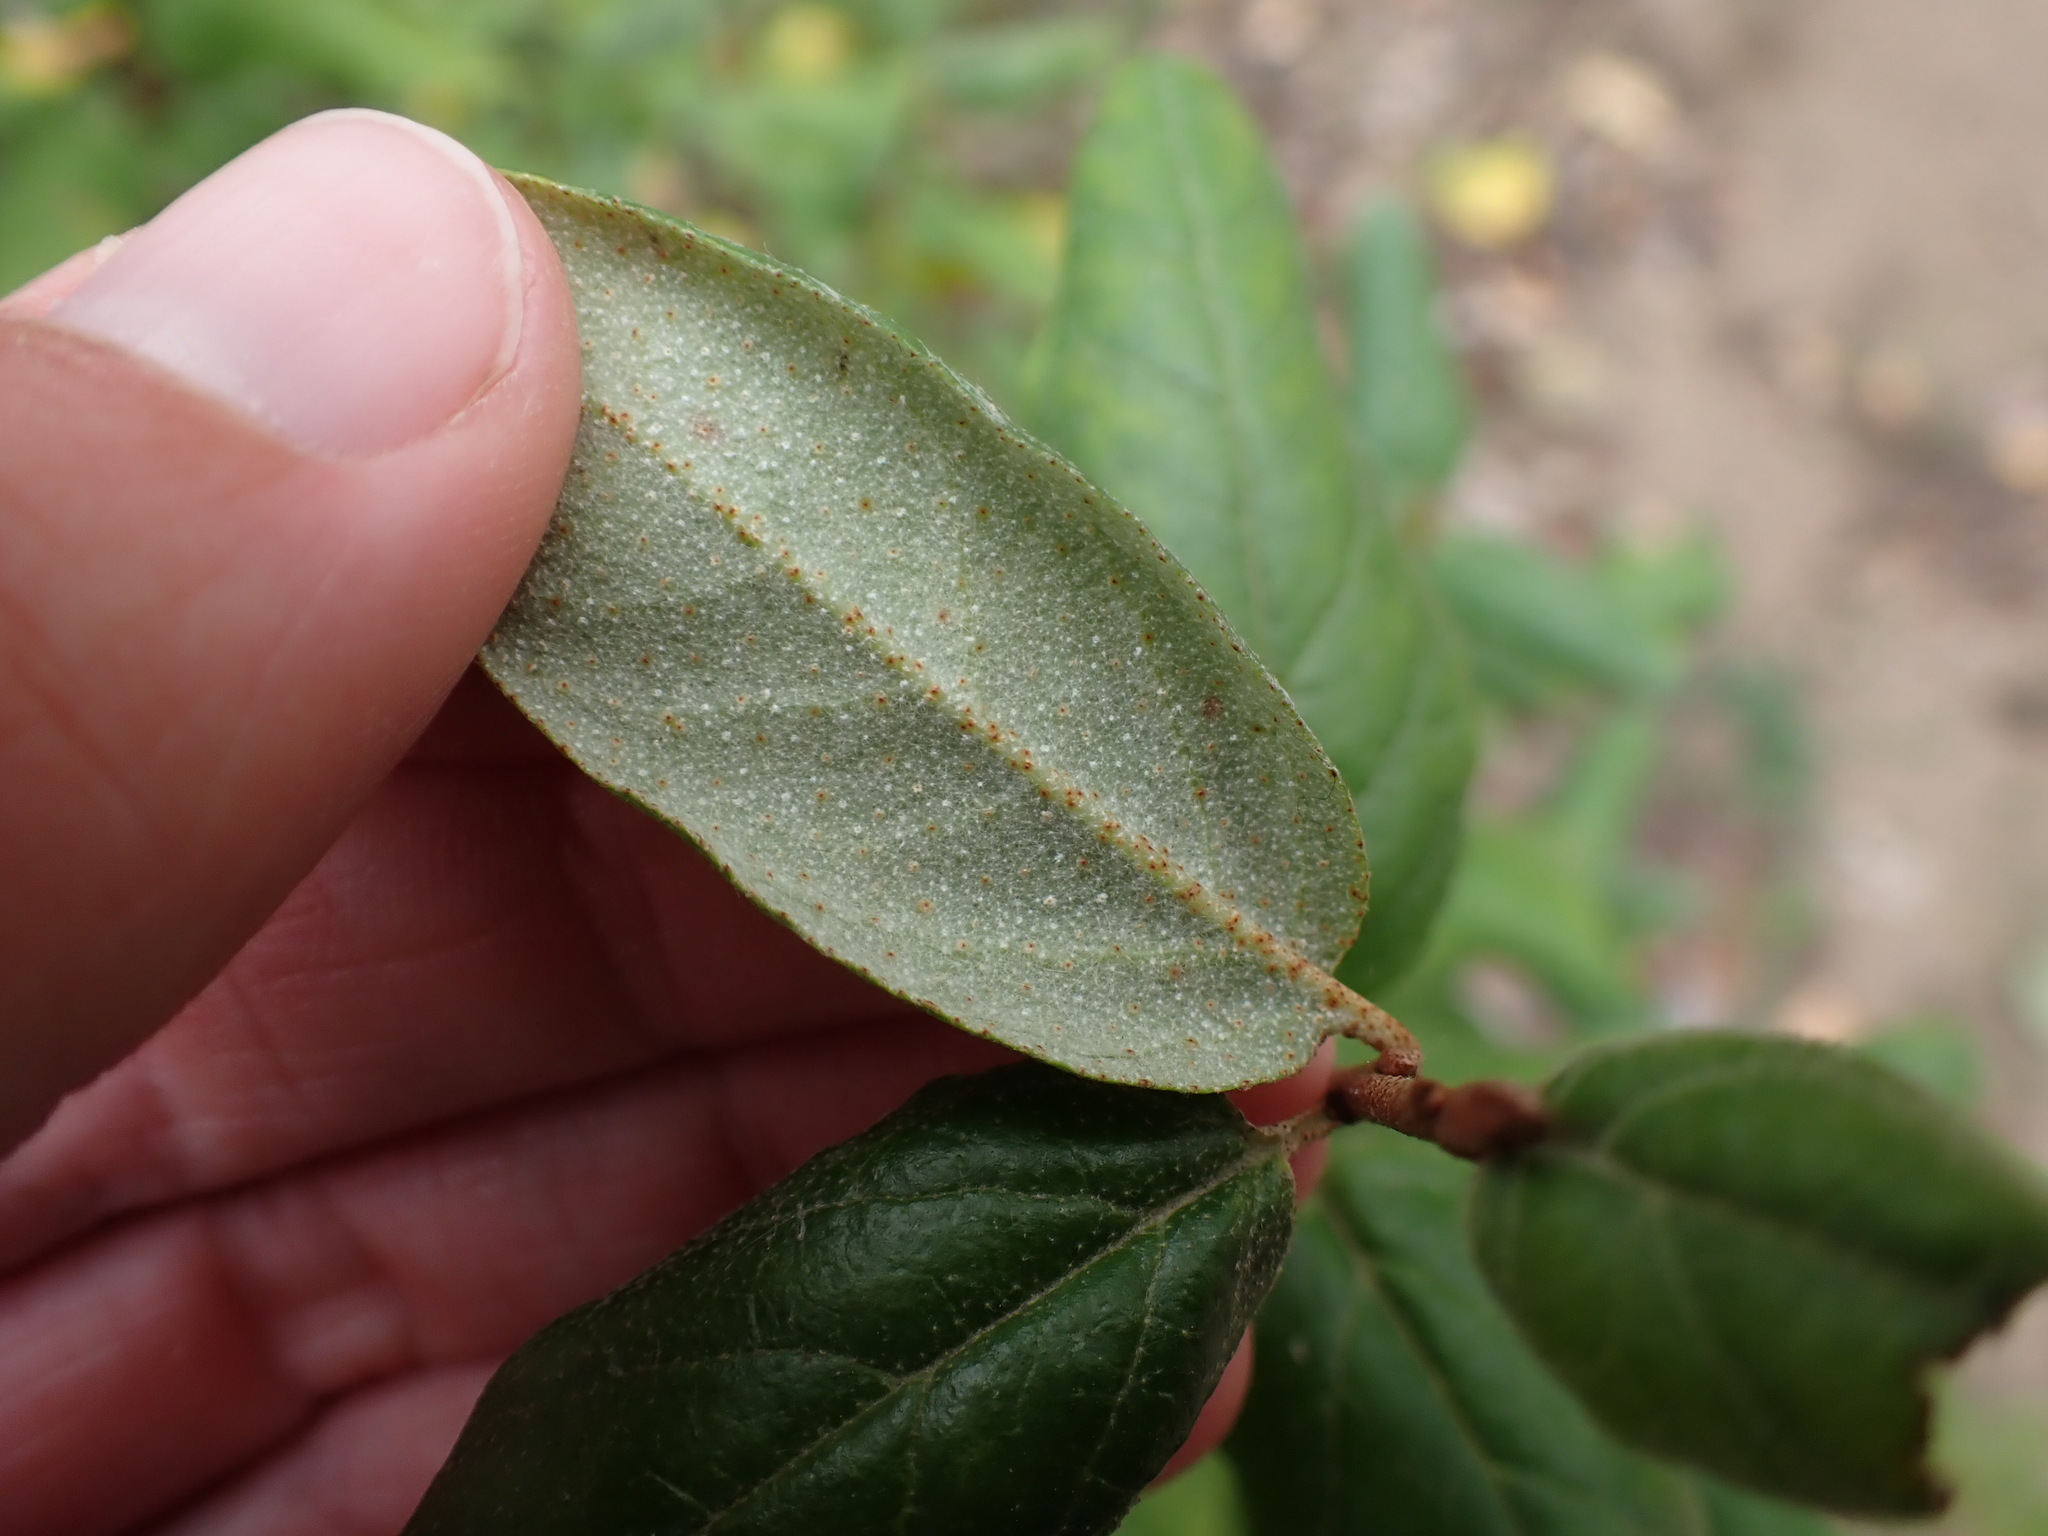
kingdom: Plantae
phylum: Tracheophyta
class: Magnoliopsida
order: Rosales
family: Elaeagnaceae
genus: Shepherdia
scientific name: Shepherdia canadensis
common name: Soapberry
